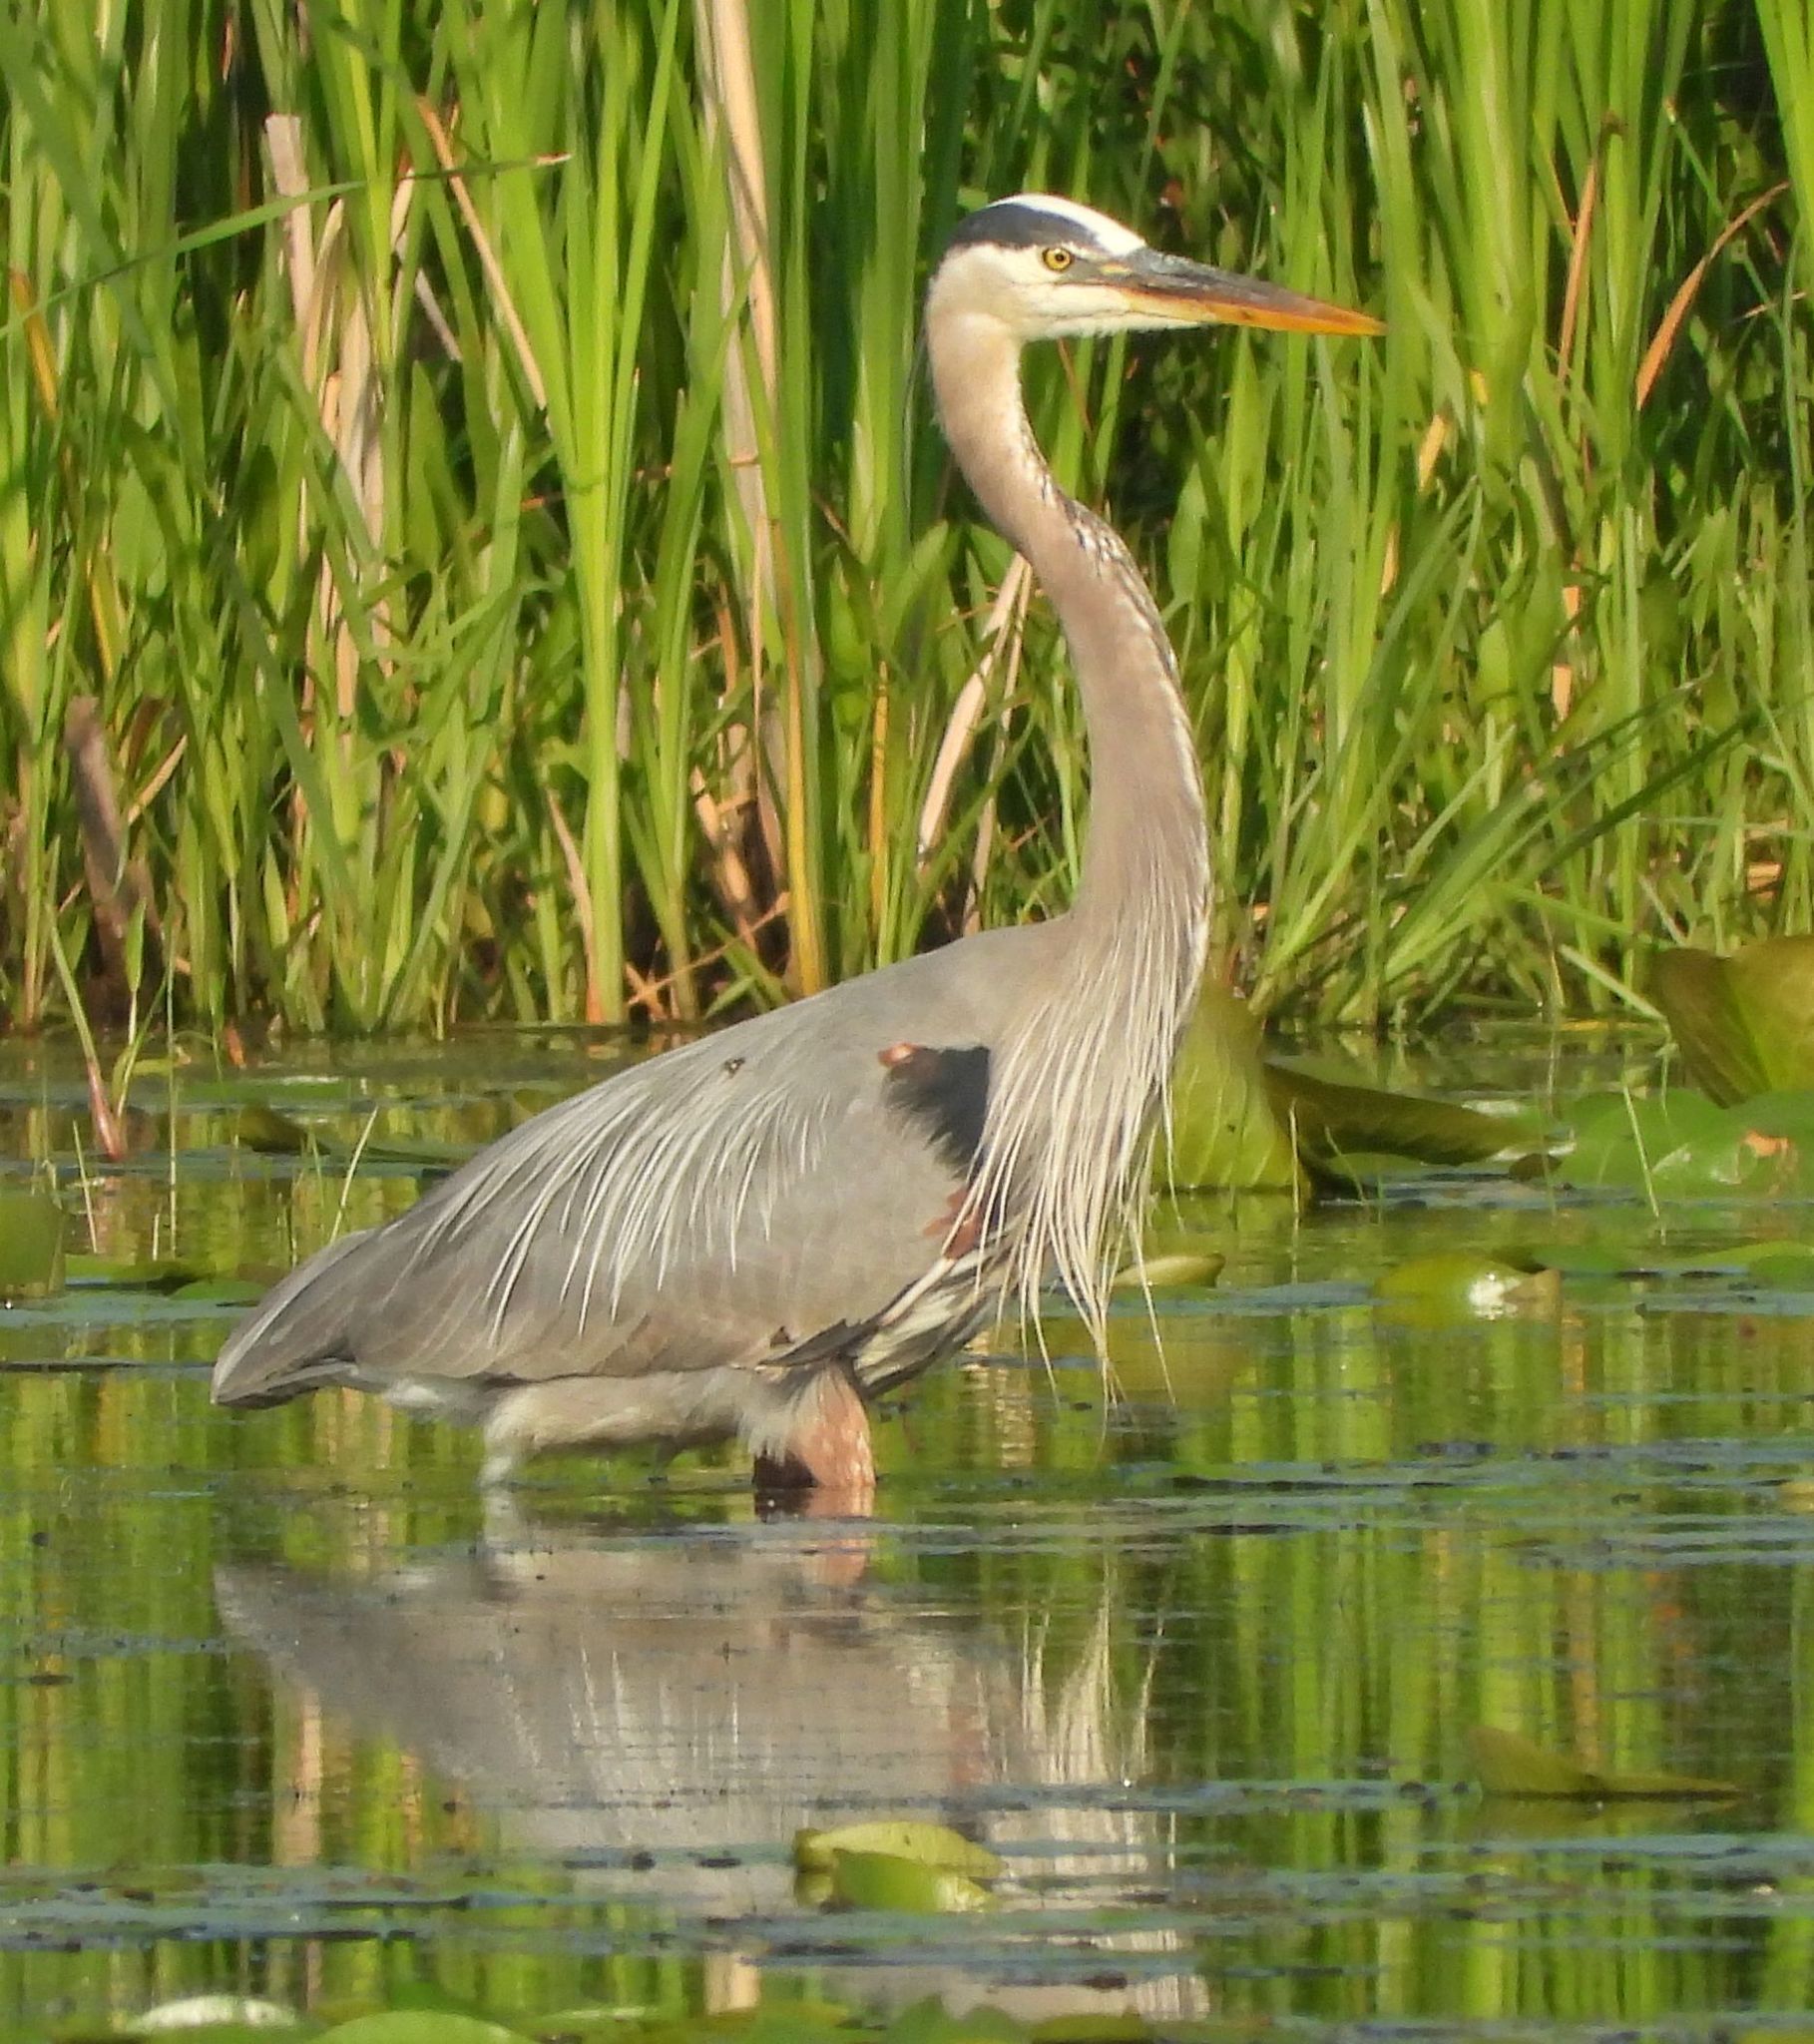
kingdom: Animalia
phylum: Chordata
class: Aves
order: Pelecaniformes
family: Ardeidae
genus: Ardea
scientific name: Ardea herodias
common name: Great blue heron
